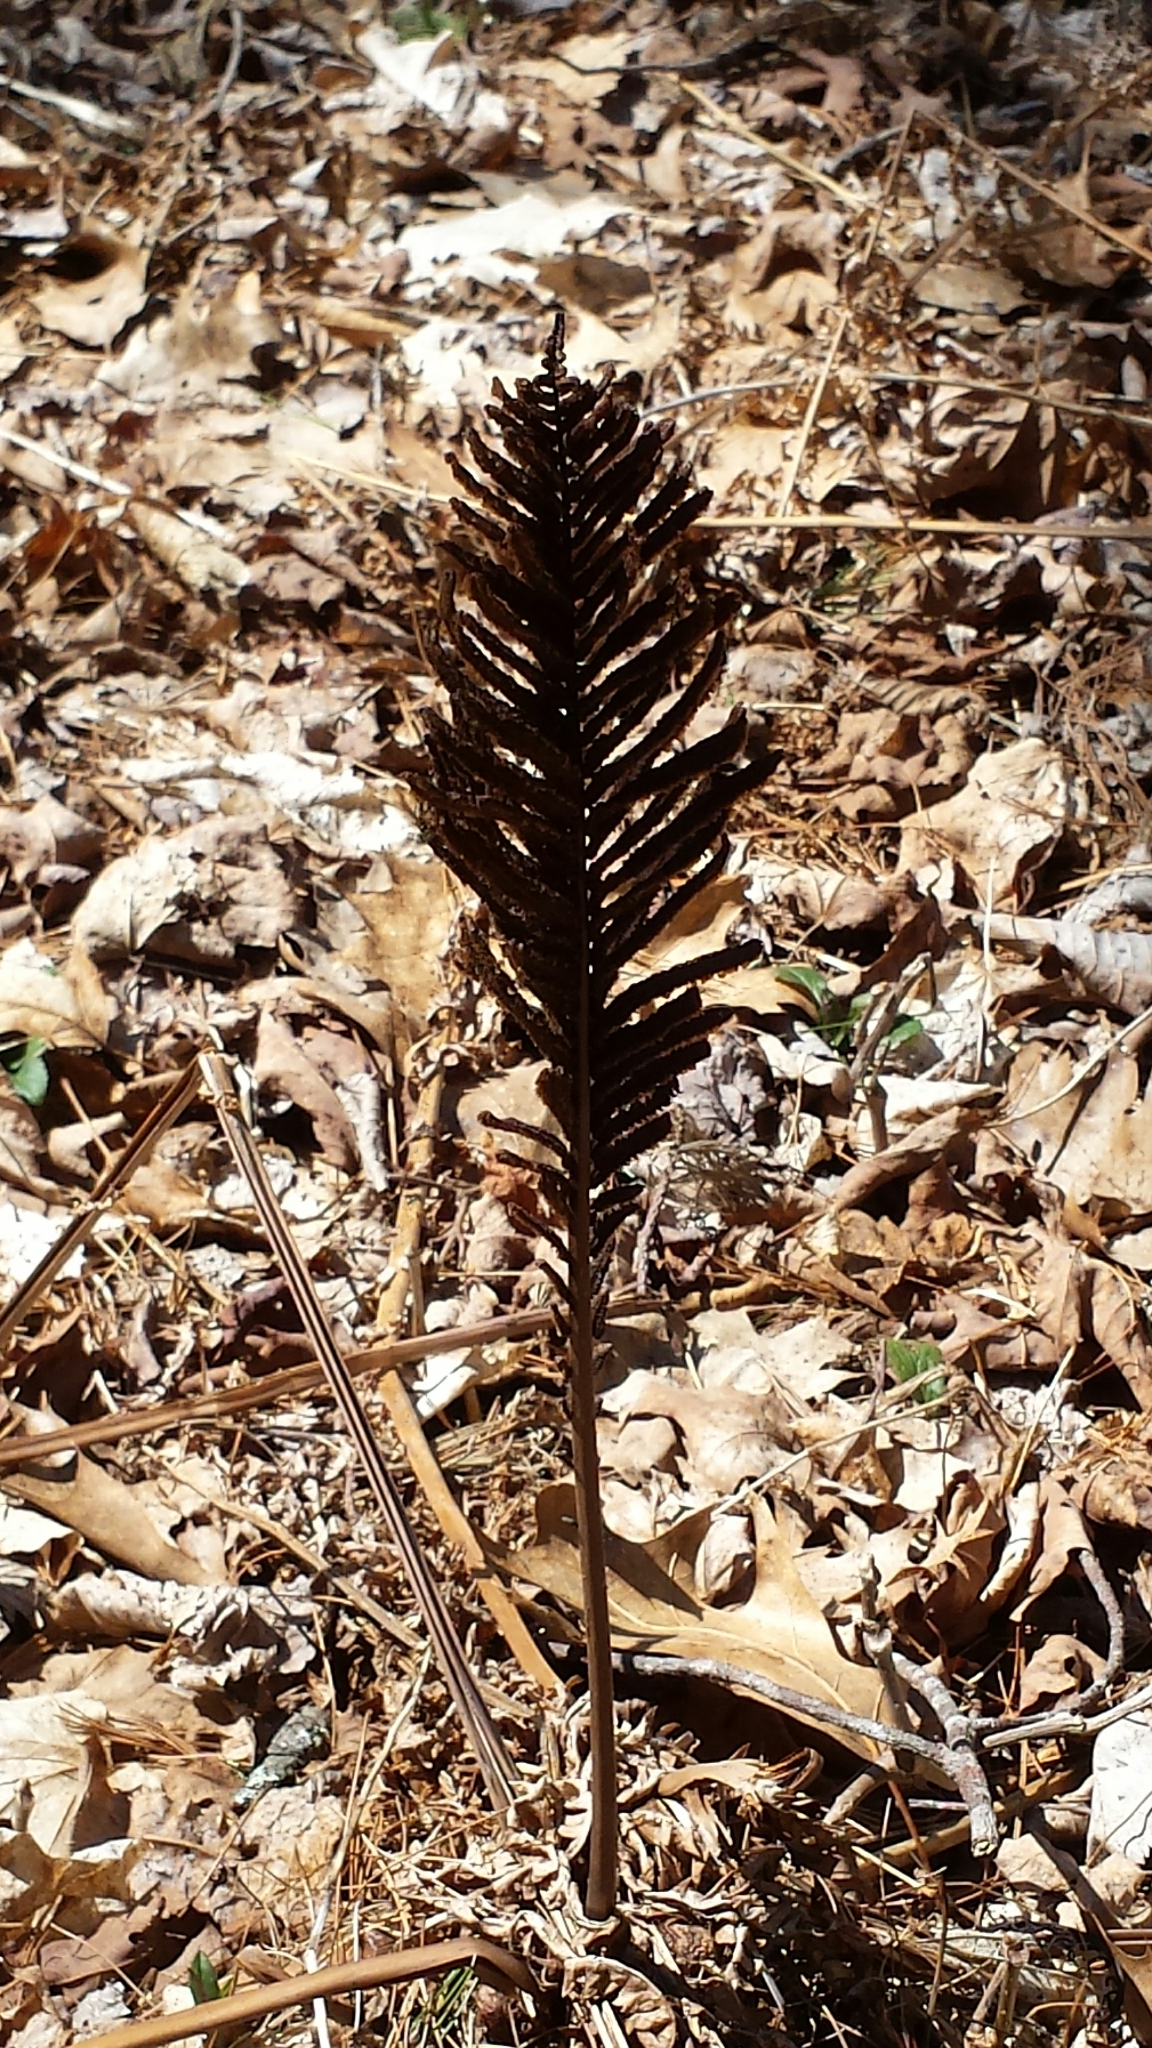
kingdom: Plantae
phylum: Tracheophyta
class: Polypodiopsida
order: Polypodiales
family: Onocleaceae
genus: Matteuccia
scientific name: Matteuccia struthiopteris
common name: Ostrich fern
